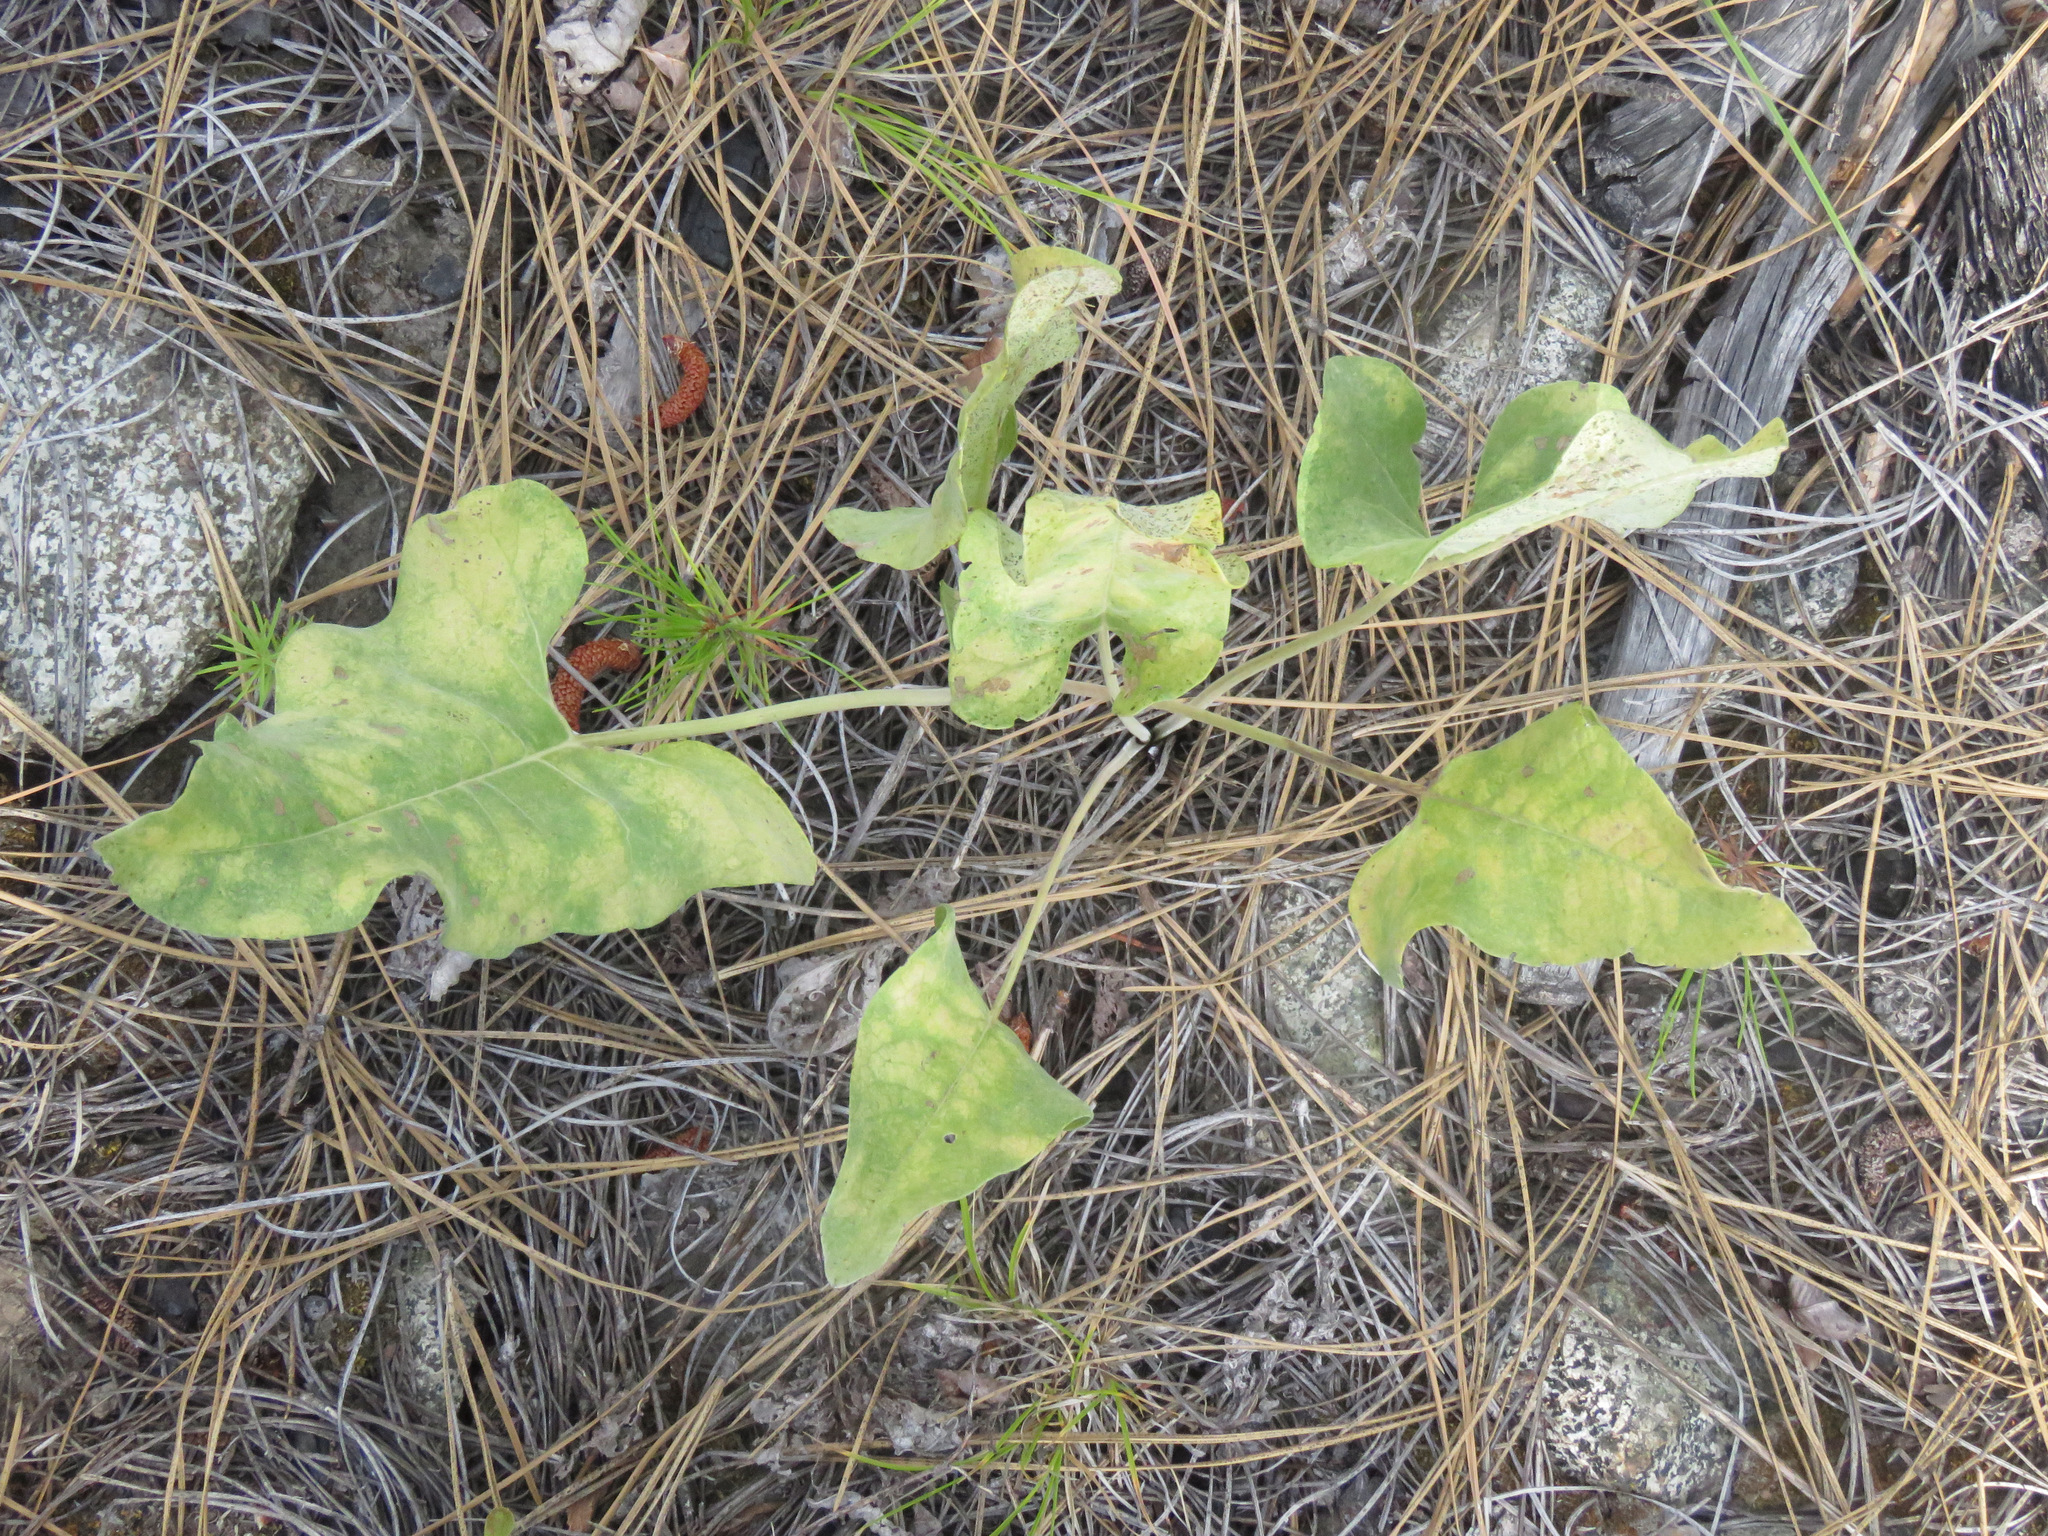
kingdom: Plantae
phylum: Tracheophyta
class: Magnoliopsida
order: Asterales
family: Asteraceae
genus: Wyethia
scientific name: Wyethia sagittata
